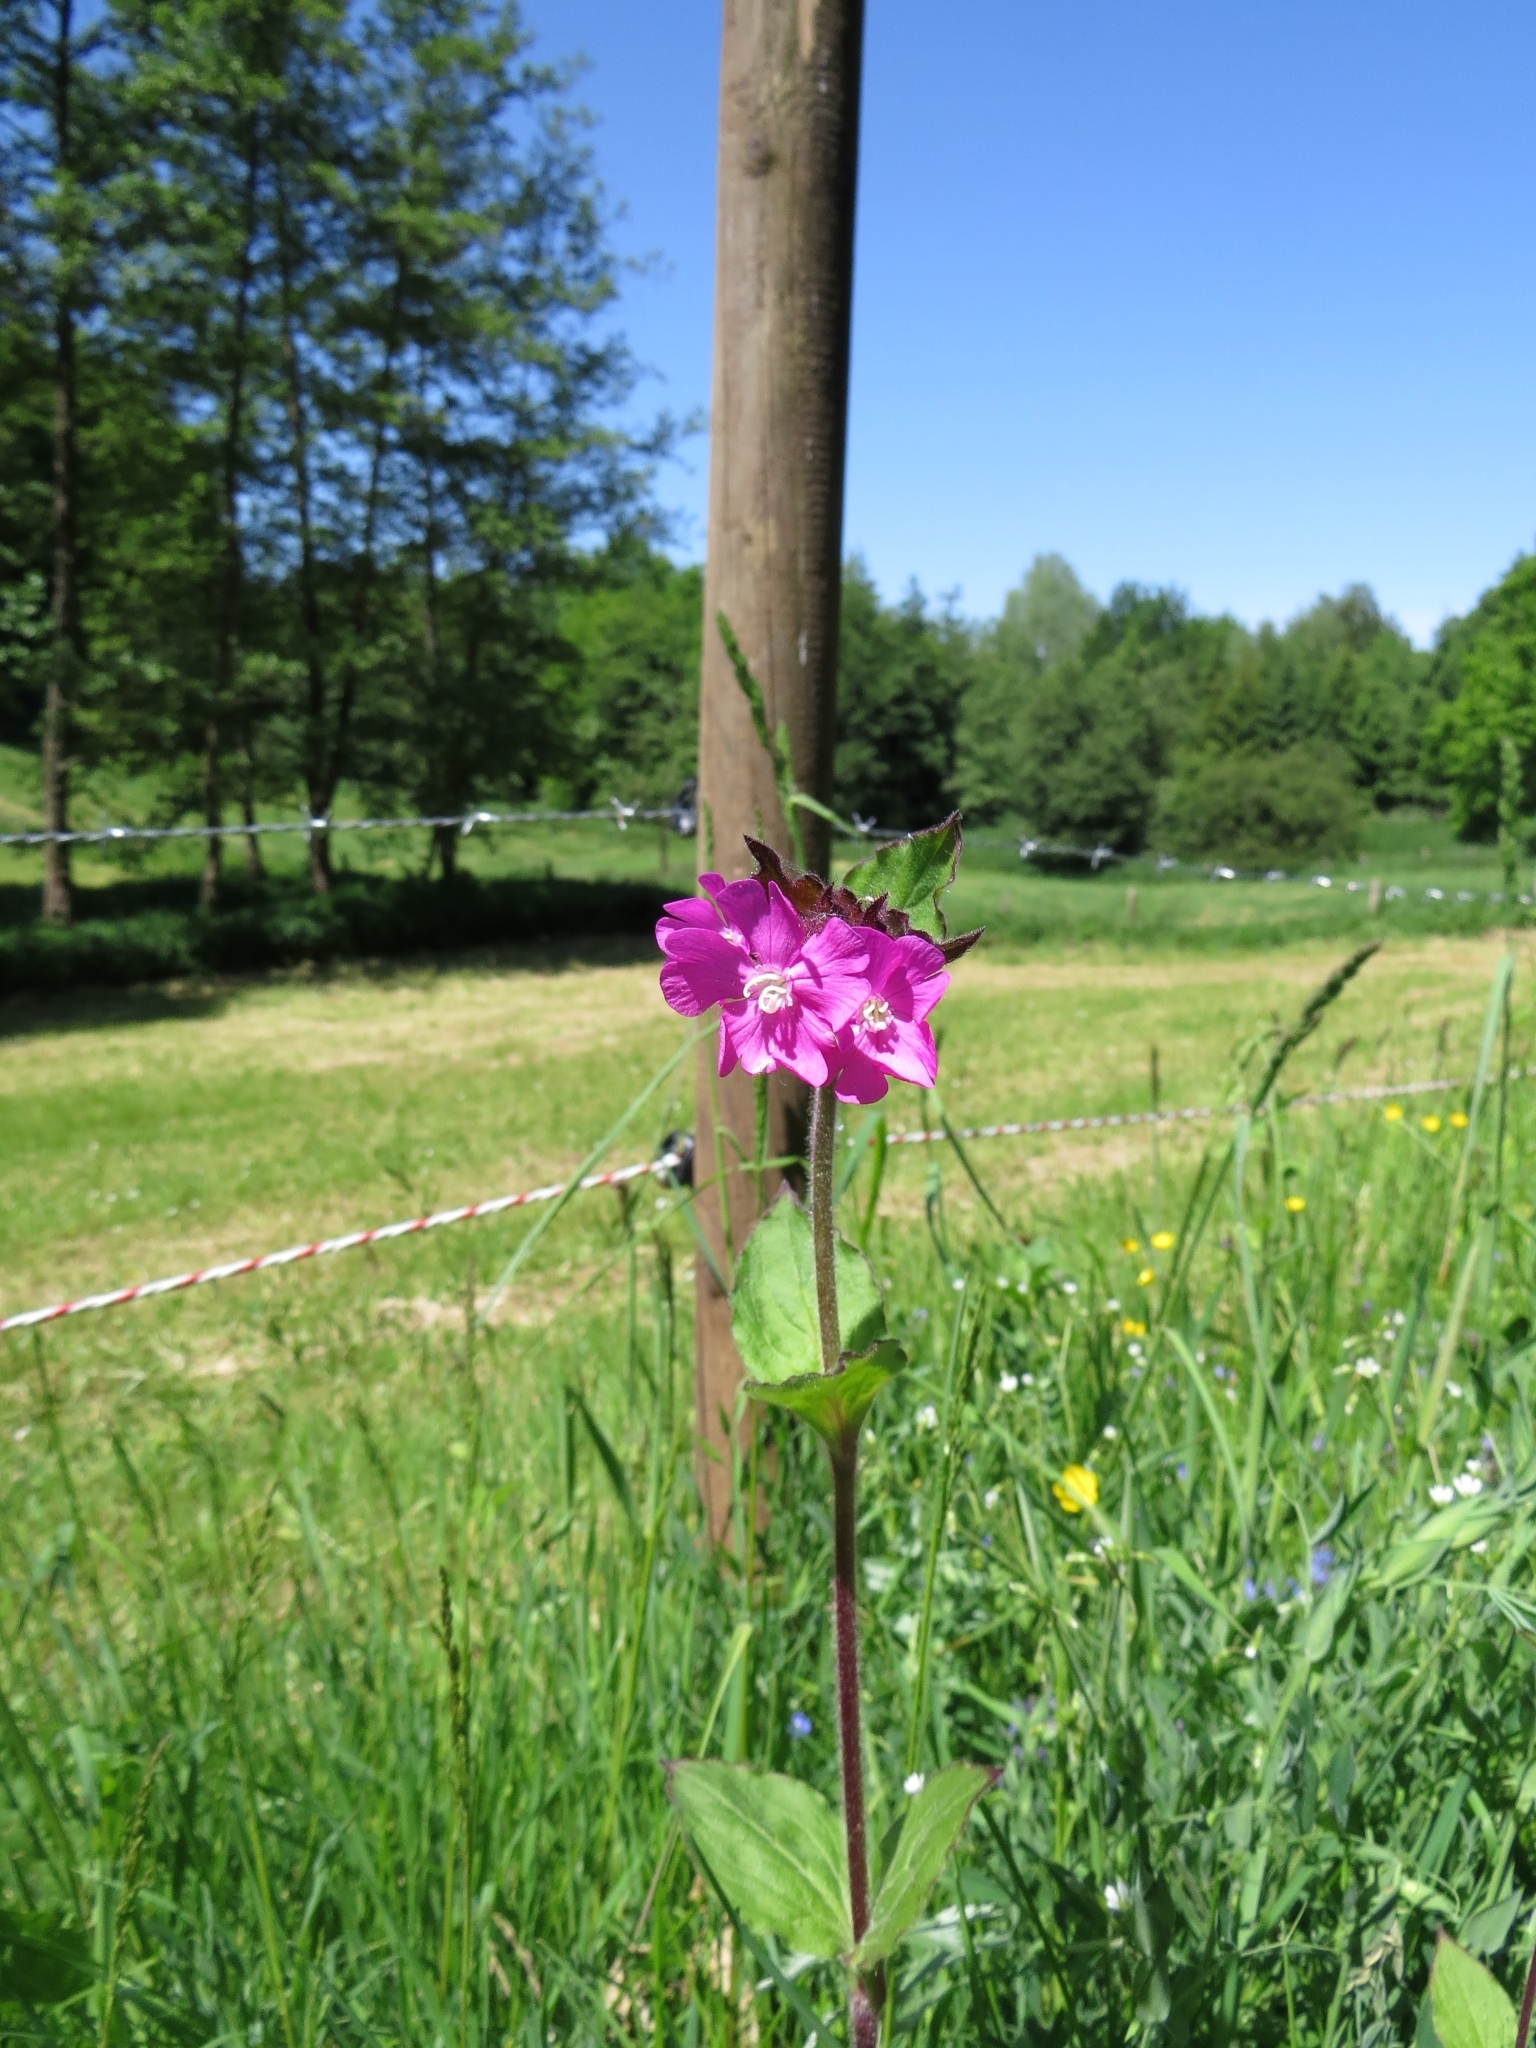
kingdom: Plantae
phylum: Tracheophyta
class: Magnoliopsida
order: Caryophyllales
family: Caryophyllaceae
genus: Silene
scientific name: Silene dioica
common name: Red campion
